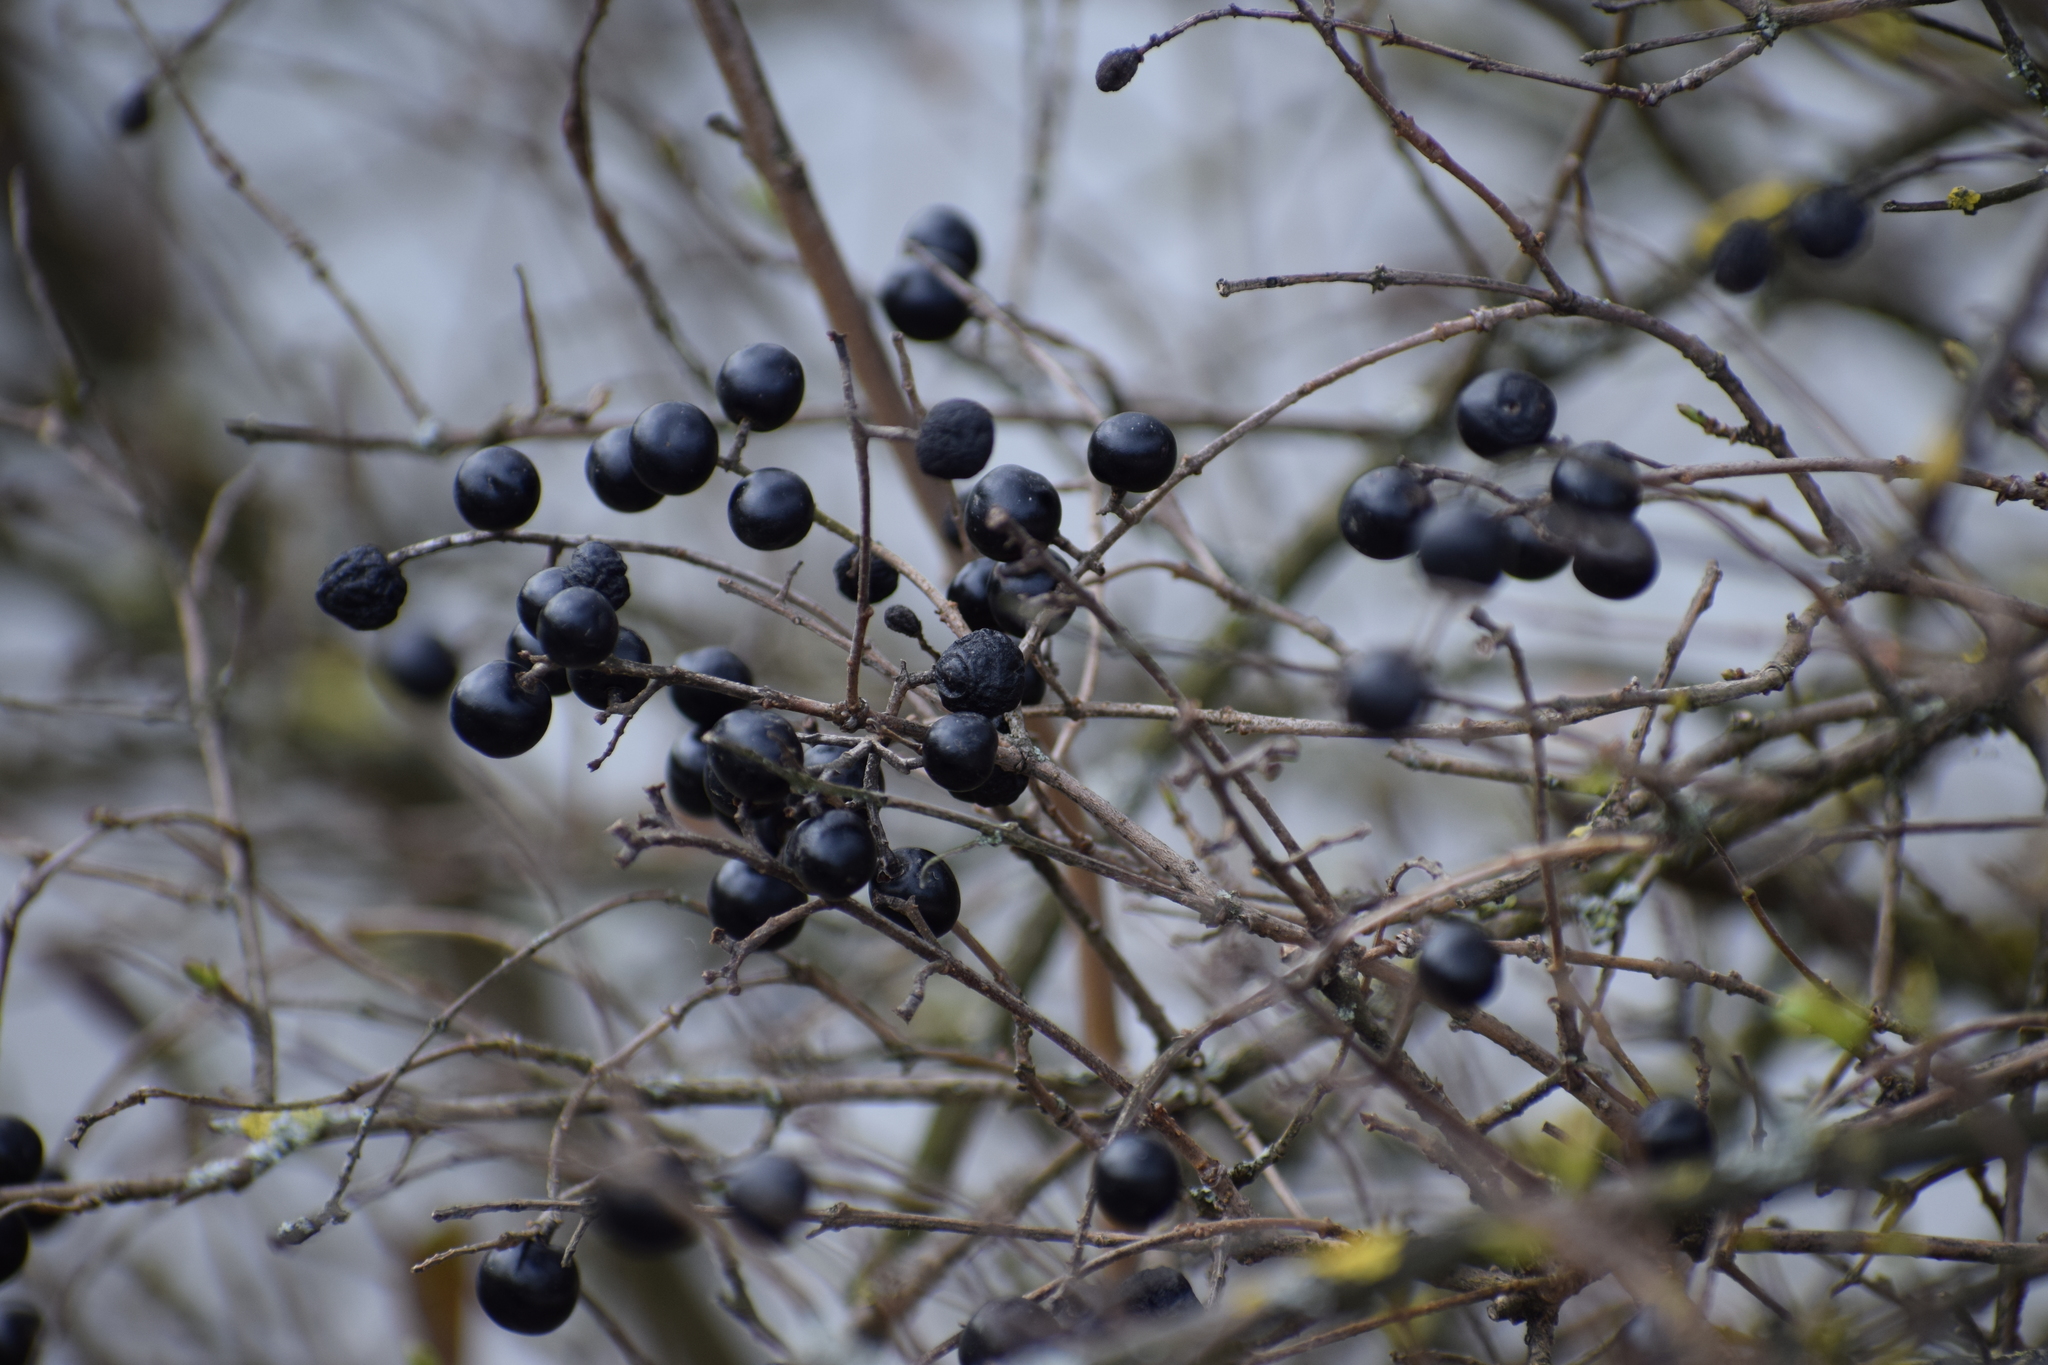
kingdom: Plantae
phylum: Tracheophyta
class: Magnoliopsida
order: Lamiales
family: Oleaceae
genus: Ligustrum
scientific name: Ligustrum vulgare
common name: Wild privet
